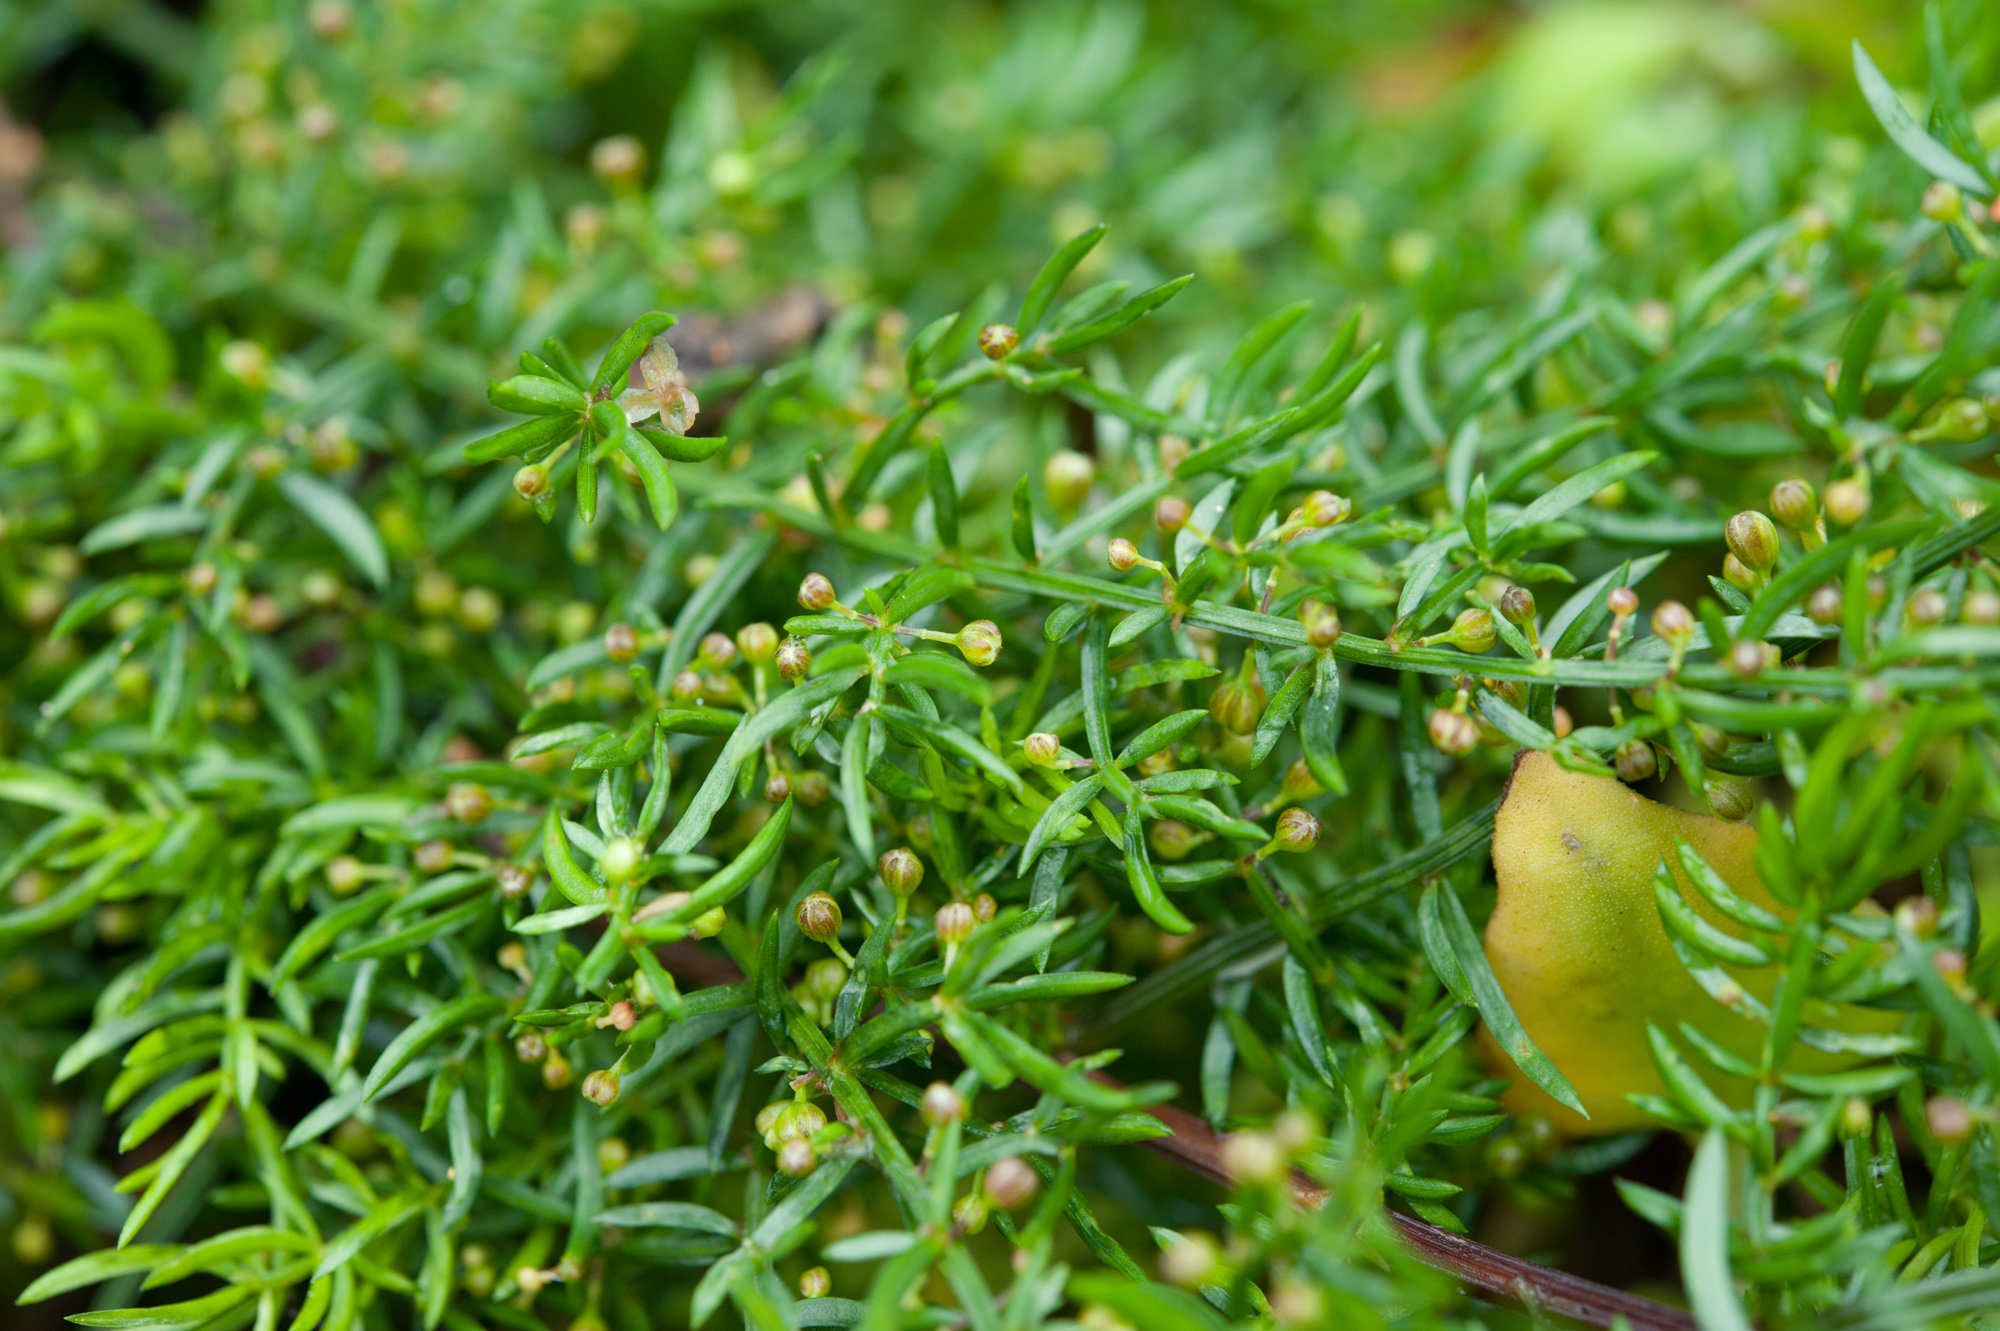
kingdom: Plantae
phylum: Tracheophyta
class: Liliopsida
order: Asparagales
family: Asparagaceae
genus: Asparagus
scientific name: Asparagus cochinchinensis
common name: Chinese asparagus
